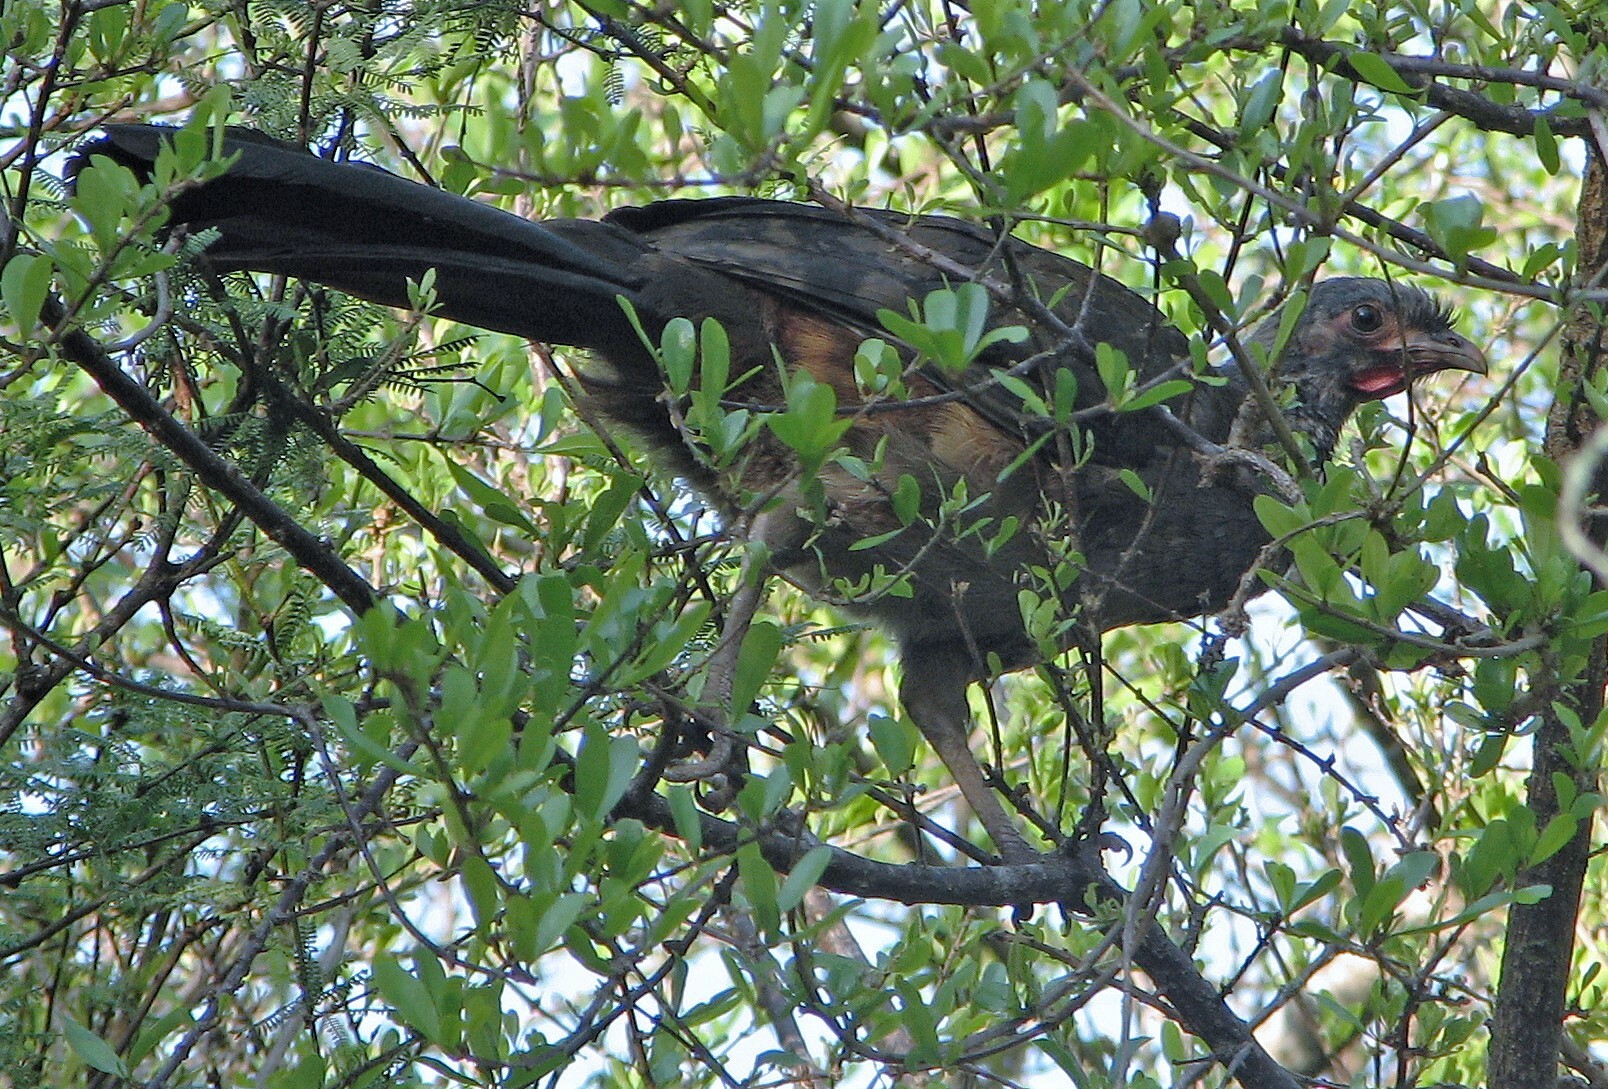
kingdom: Animalia
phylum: Chordata
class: Aves
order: Galliformes
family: Cracidae
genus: Ortalis
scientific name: Ortalis canicollis
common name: Chaco chachalaca
